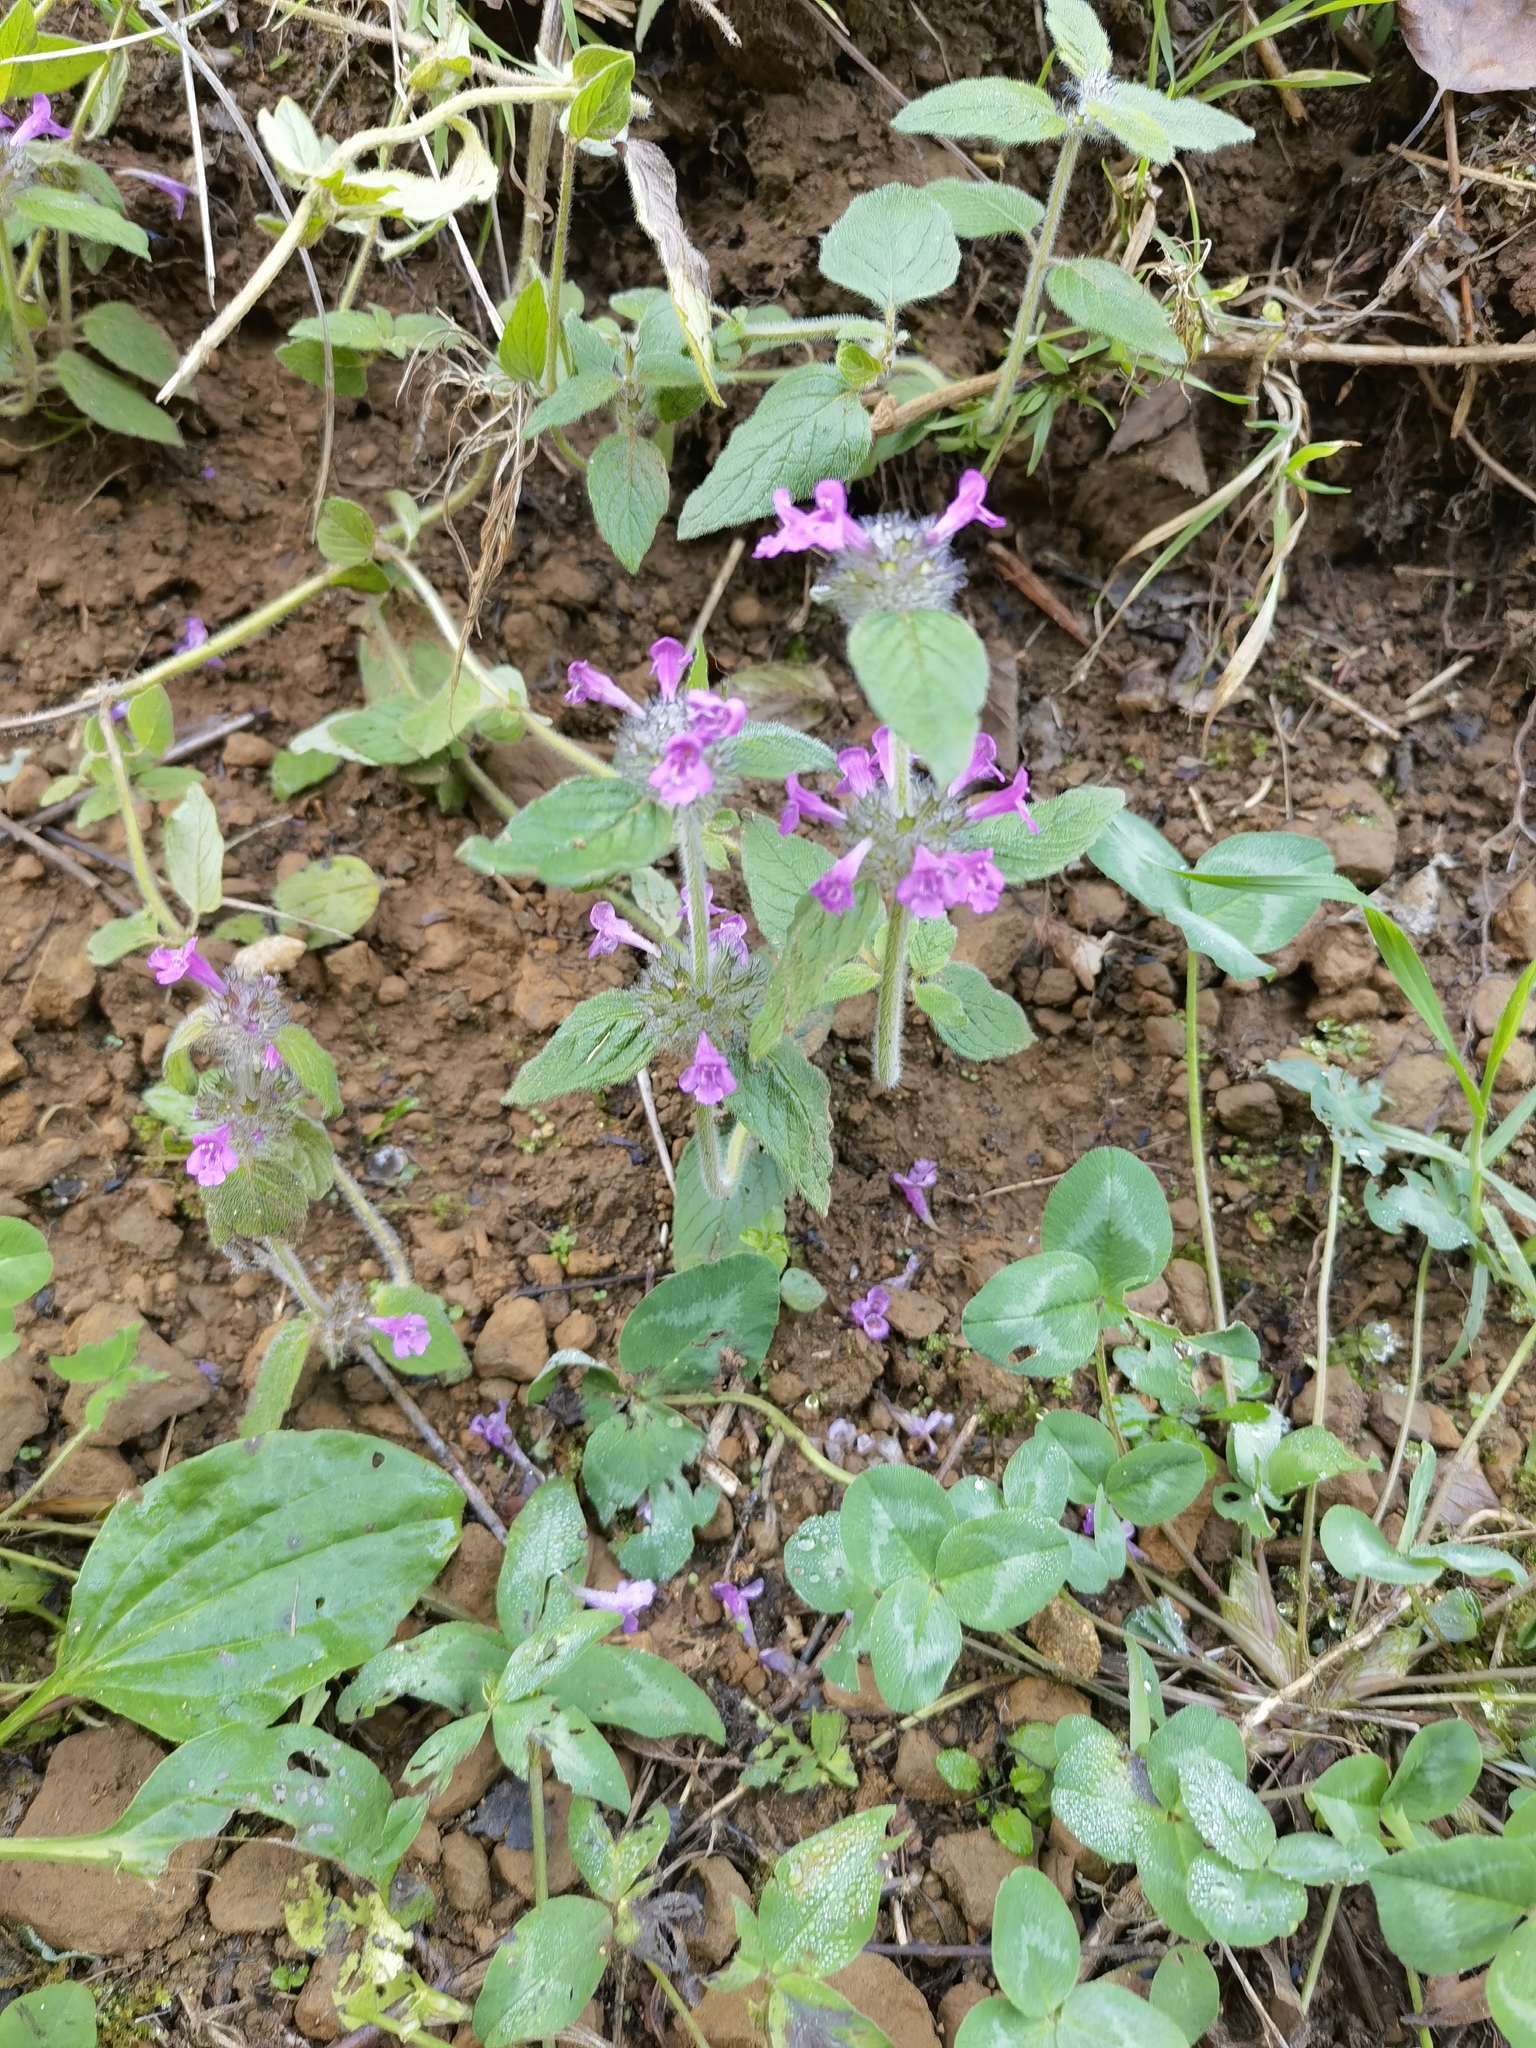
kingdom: Plantae
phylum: Tracheophyta
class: Magnoliopsida
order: Lamiales
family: Lamiaceae
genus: Clinopodium
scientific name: Clinopodium vulgare
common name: Wild basil
